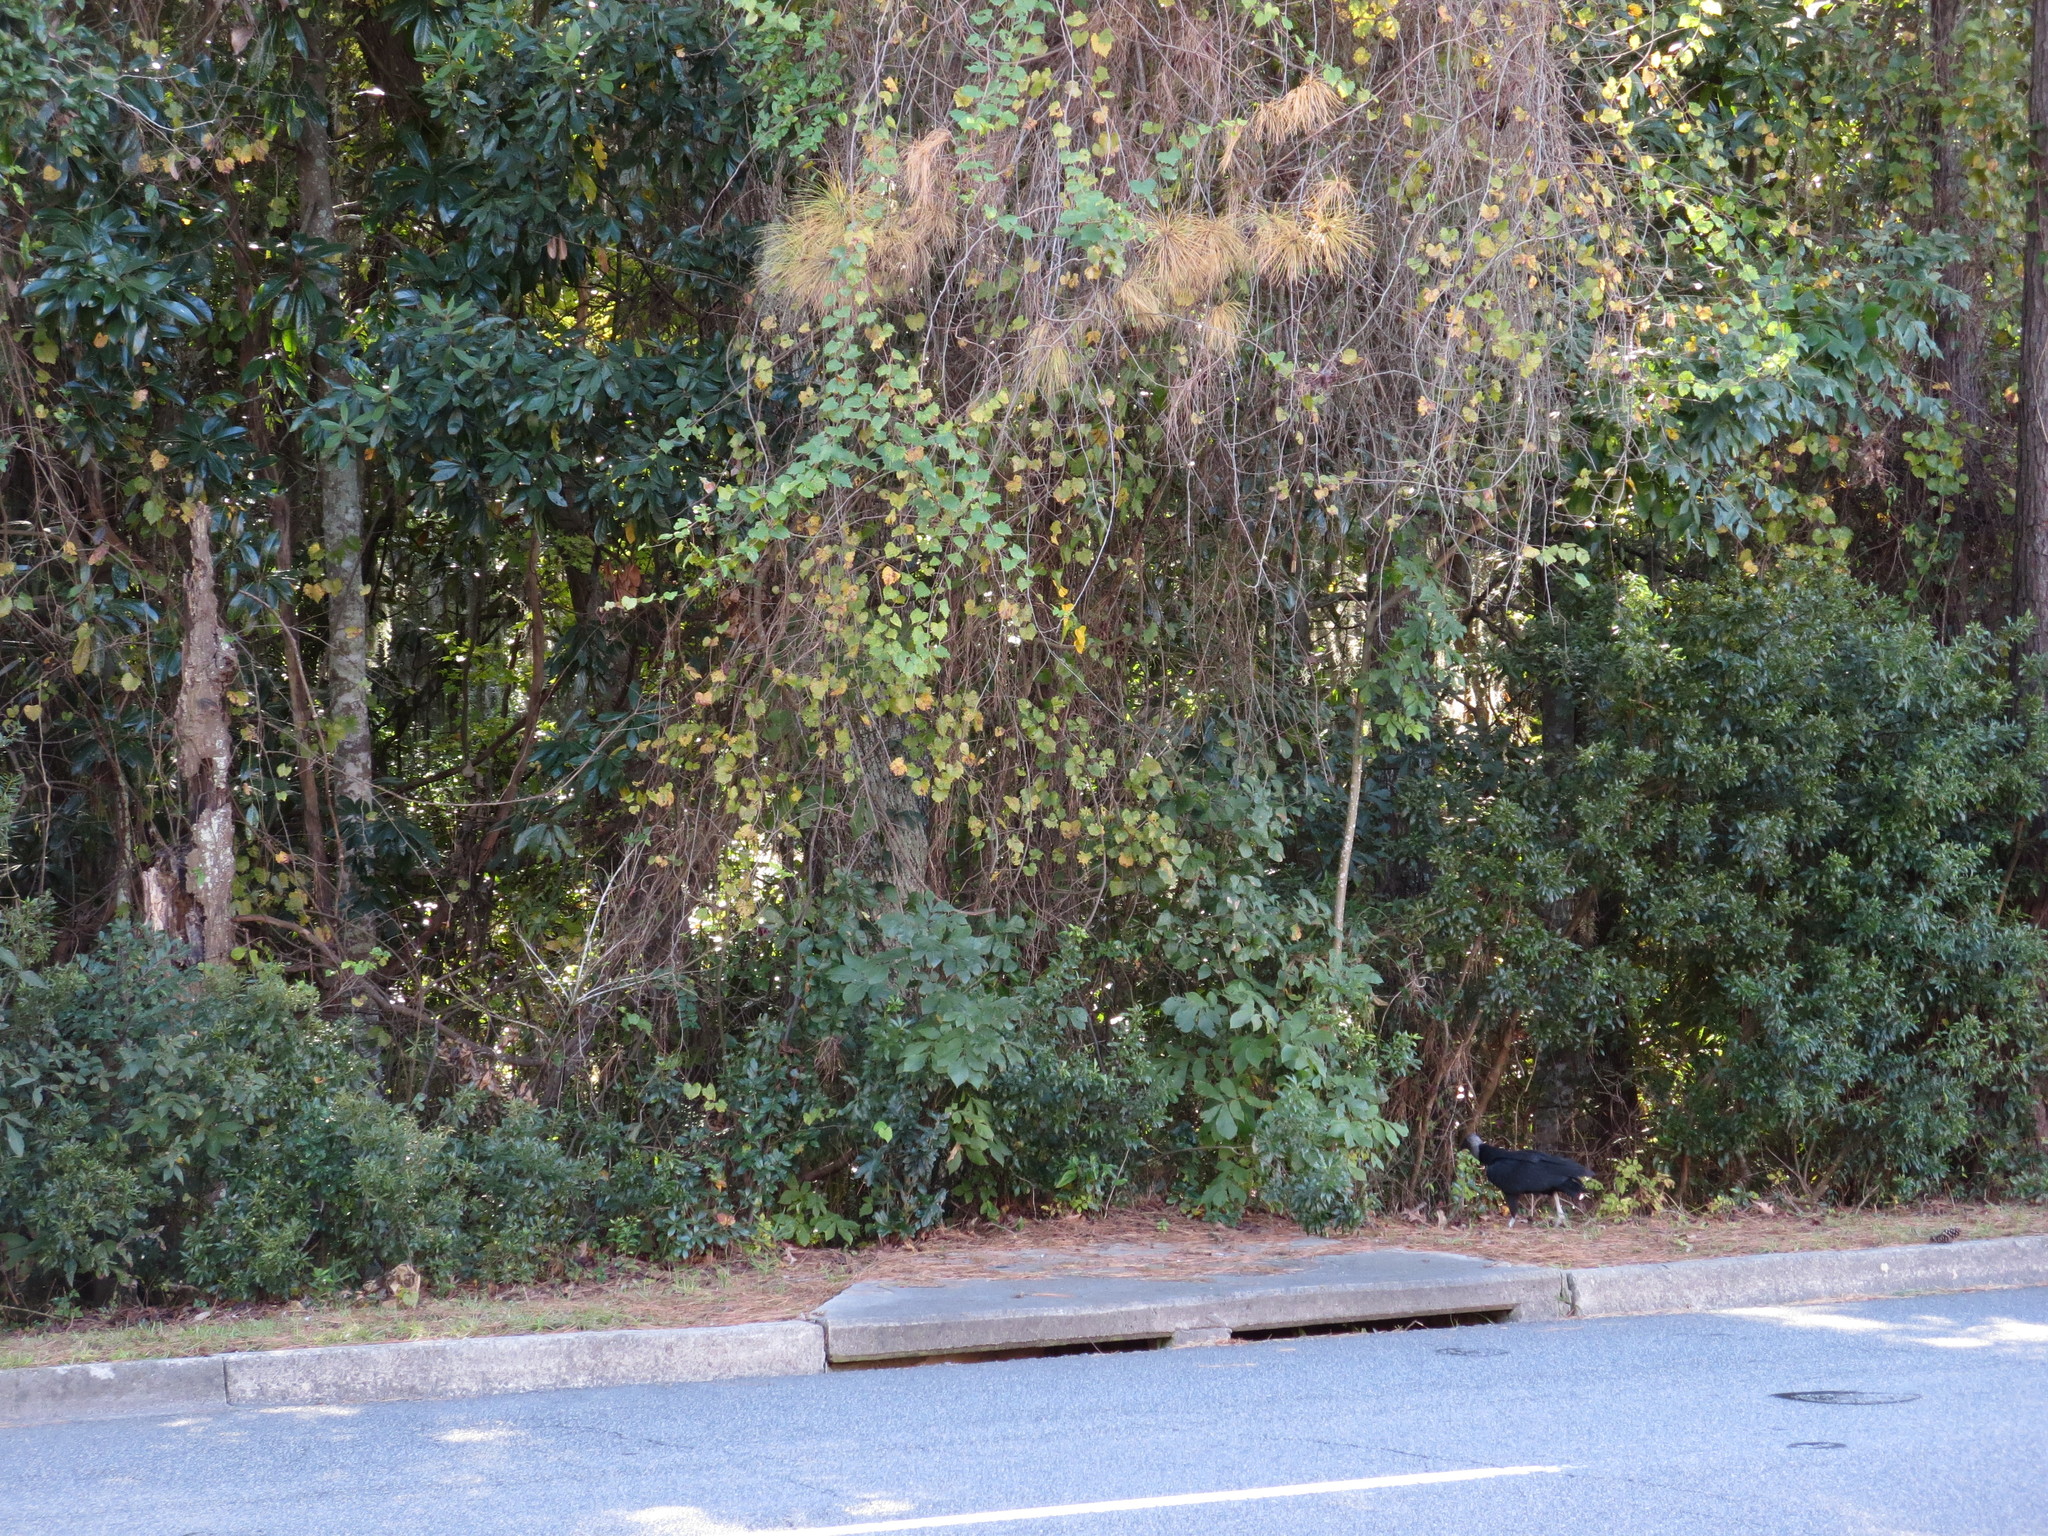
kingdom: Animalia
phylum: Chordata
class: Aves
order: Accipitriformes
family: Cathartidae
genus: Coragyps
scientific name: Coragyps atratus
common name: Black vulture
